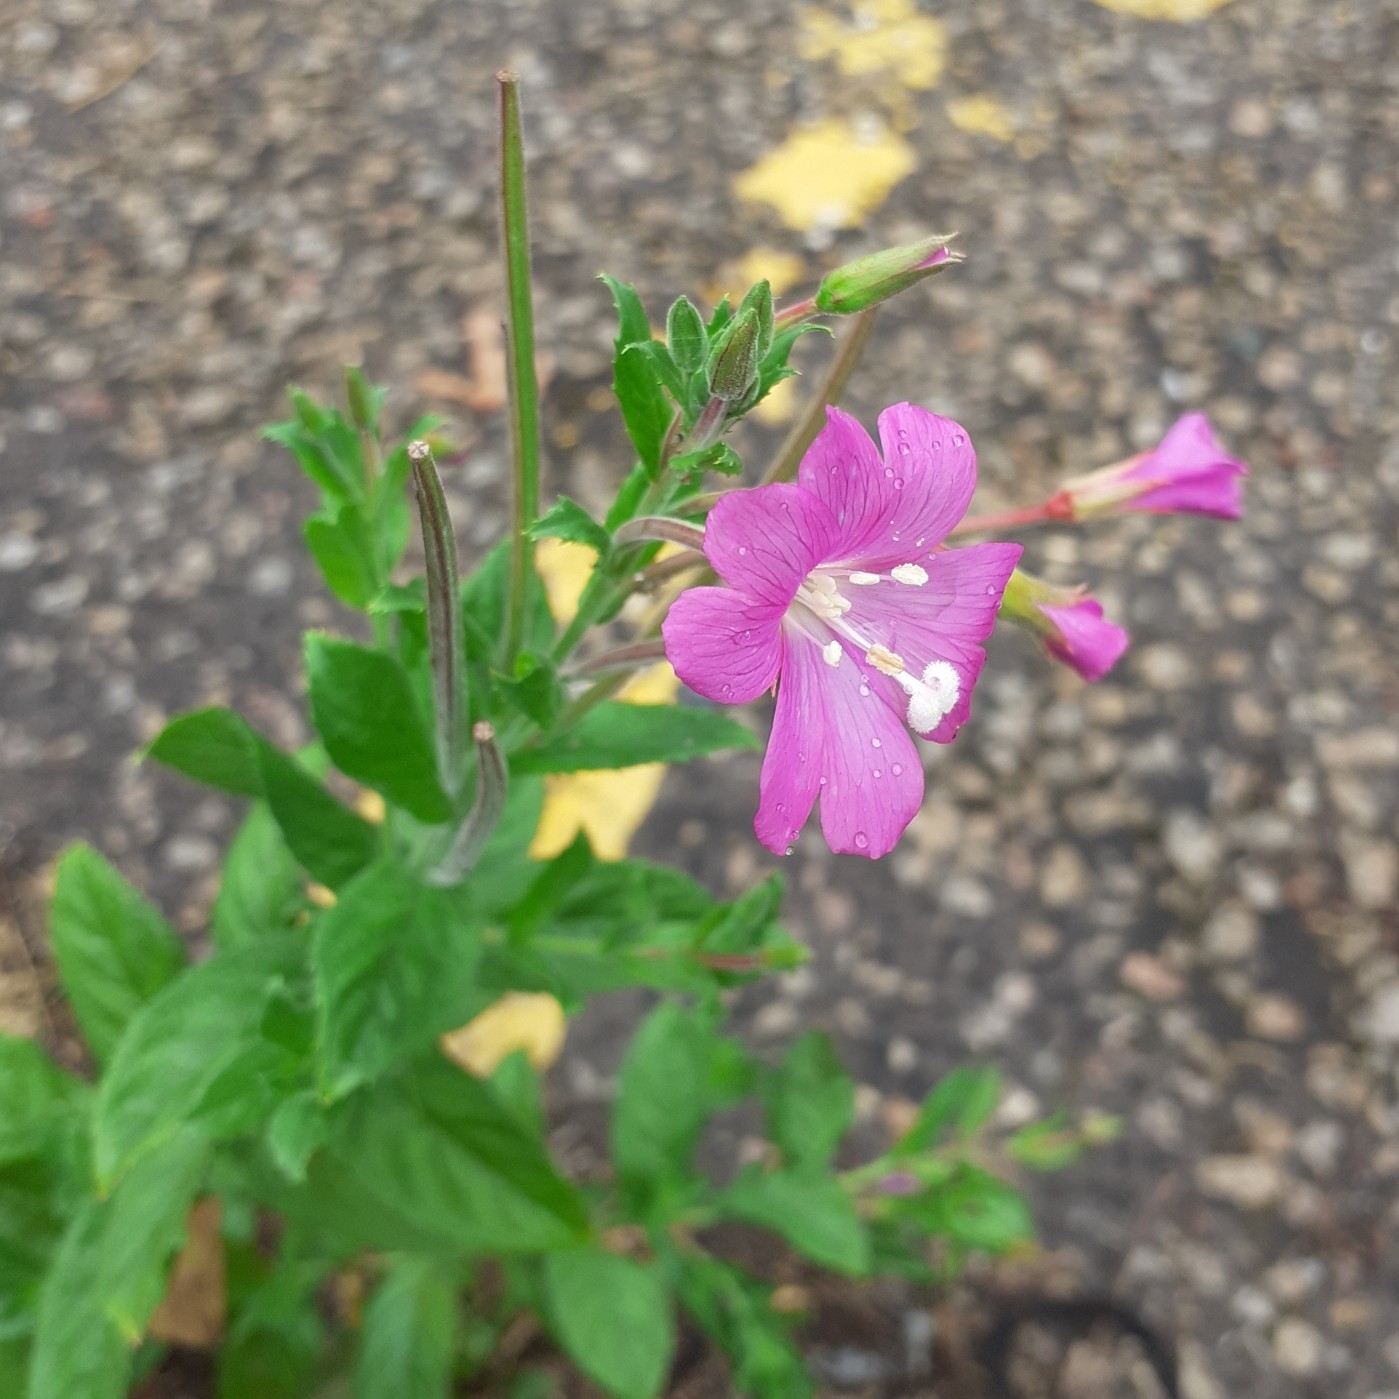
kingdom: Plantae
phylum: Tracheophyta
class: Magnoliopsida
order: Myrtales
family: Onagraceae
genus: Epilobium
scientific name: Epilobium hirsutum
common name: Great willowherb
